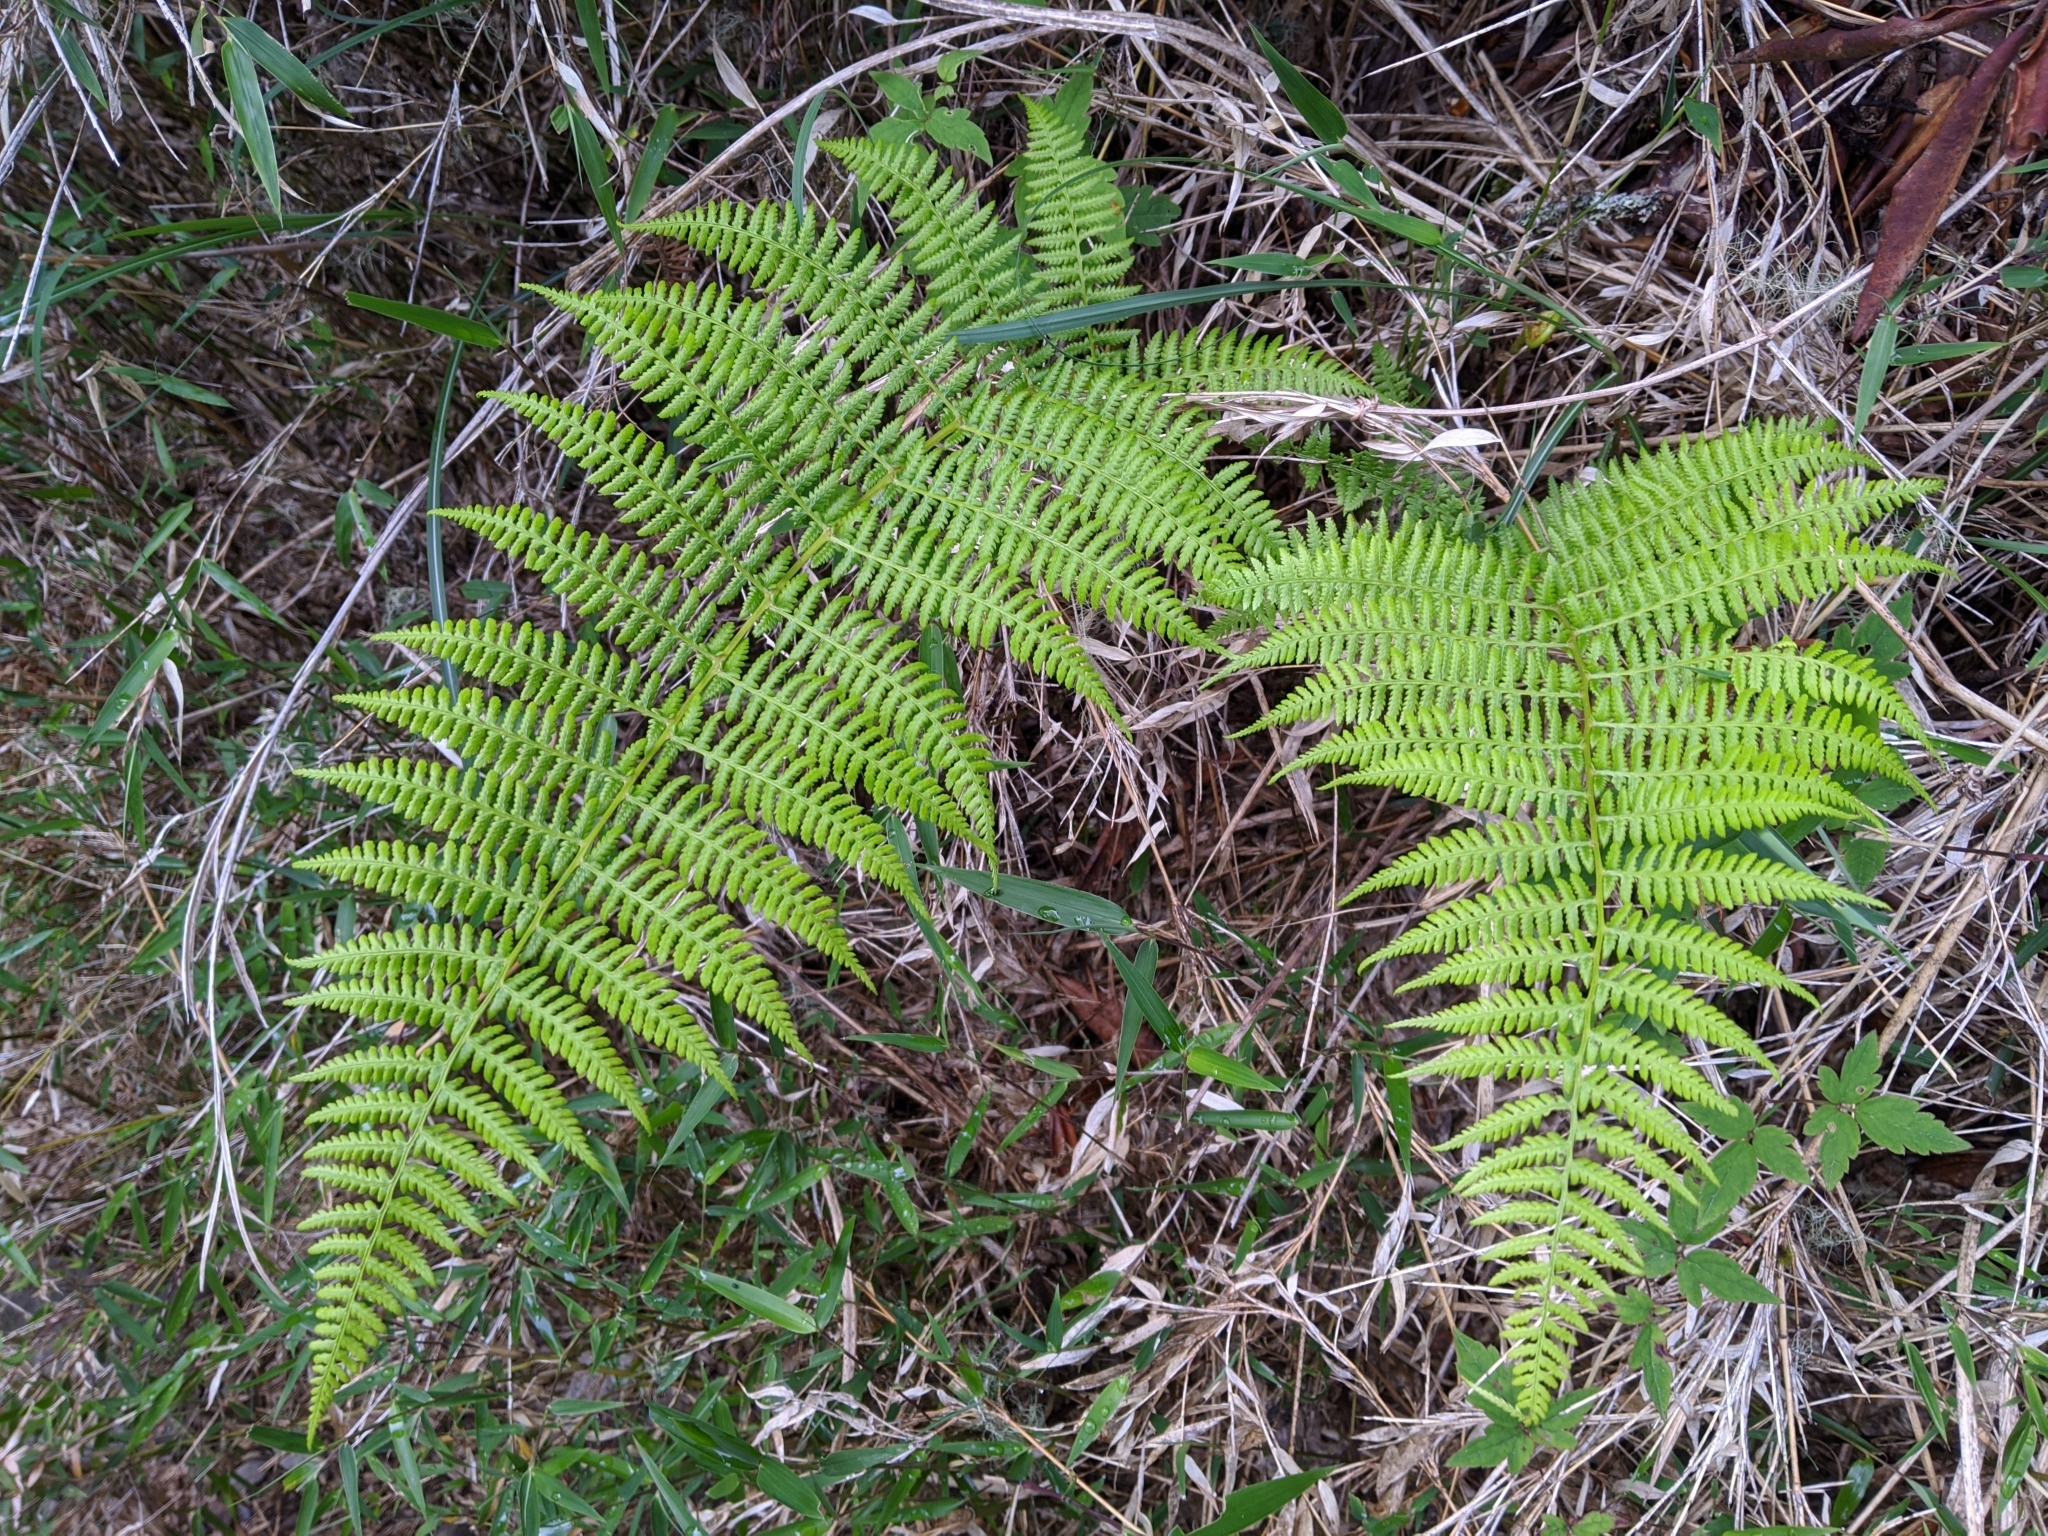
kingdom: Plantae
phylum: Tracheophyta
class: Polypodiopsida
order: Polypodiales
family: Athyriaceae
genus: Athyrium
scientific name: Athyrium oppositipennum
